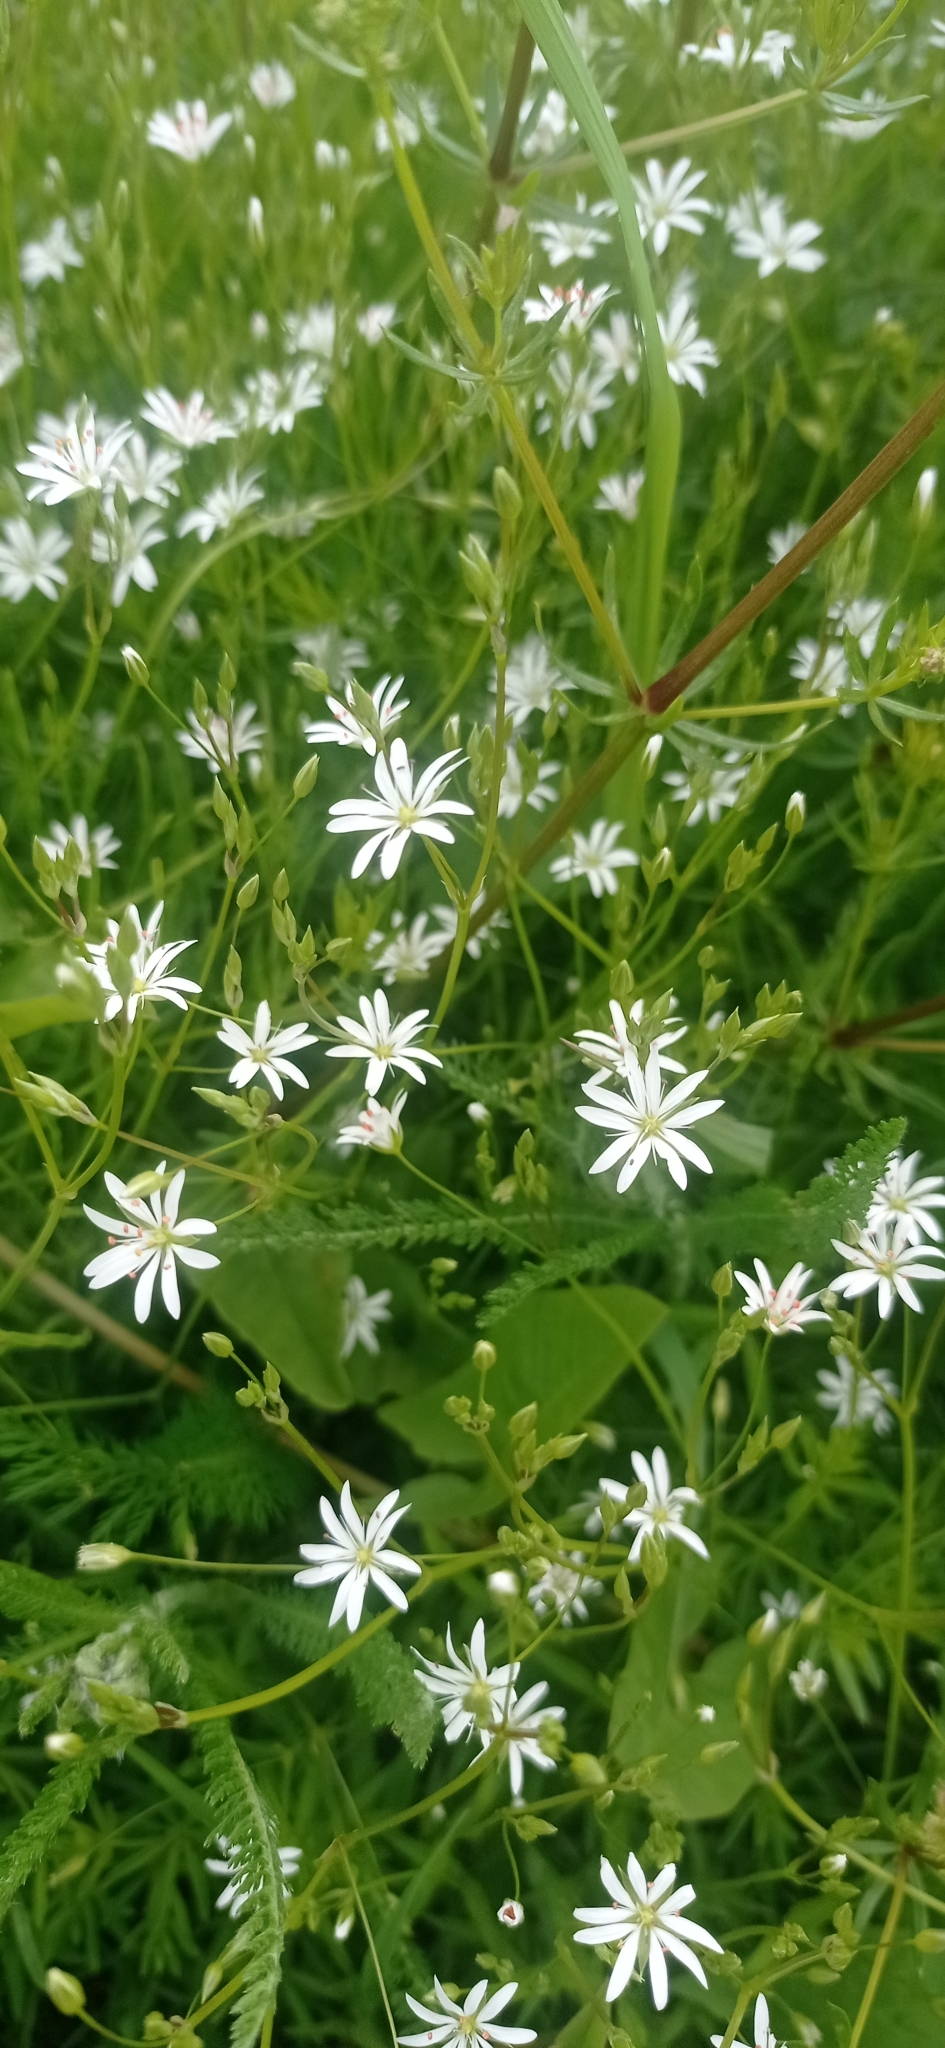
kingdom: Plantae
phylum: Tracheophyta
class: Magnoliopsida
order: Caryophyllales
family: Caryophyllaceae
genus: Stellaria
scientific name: Stellaria graminea
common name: Grass-like starwort
